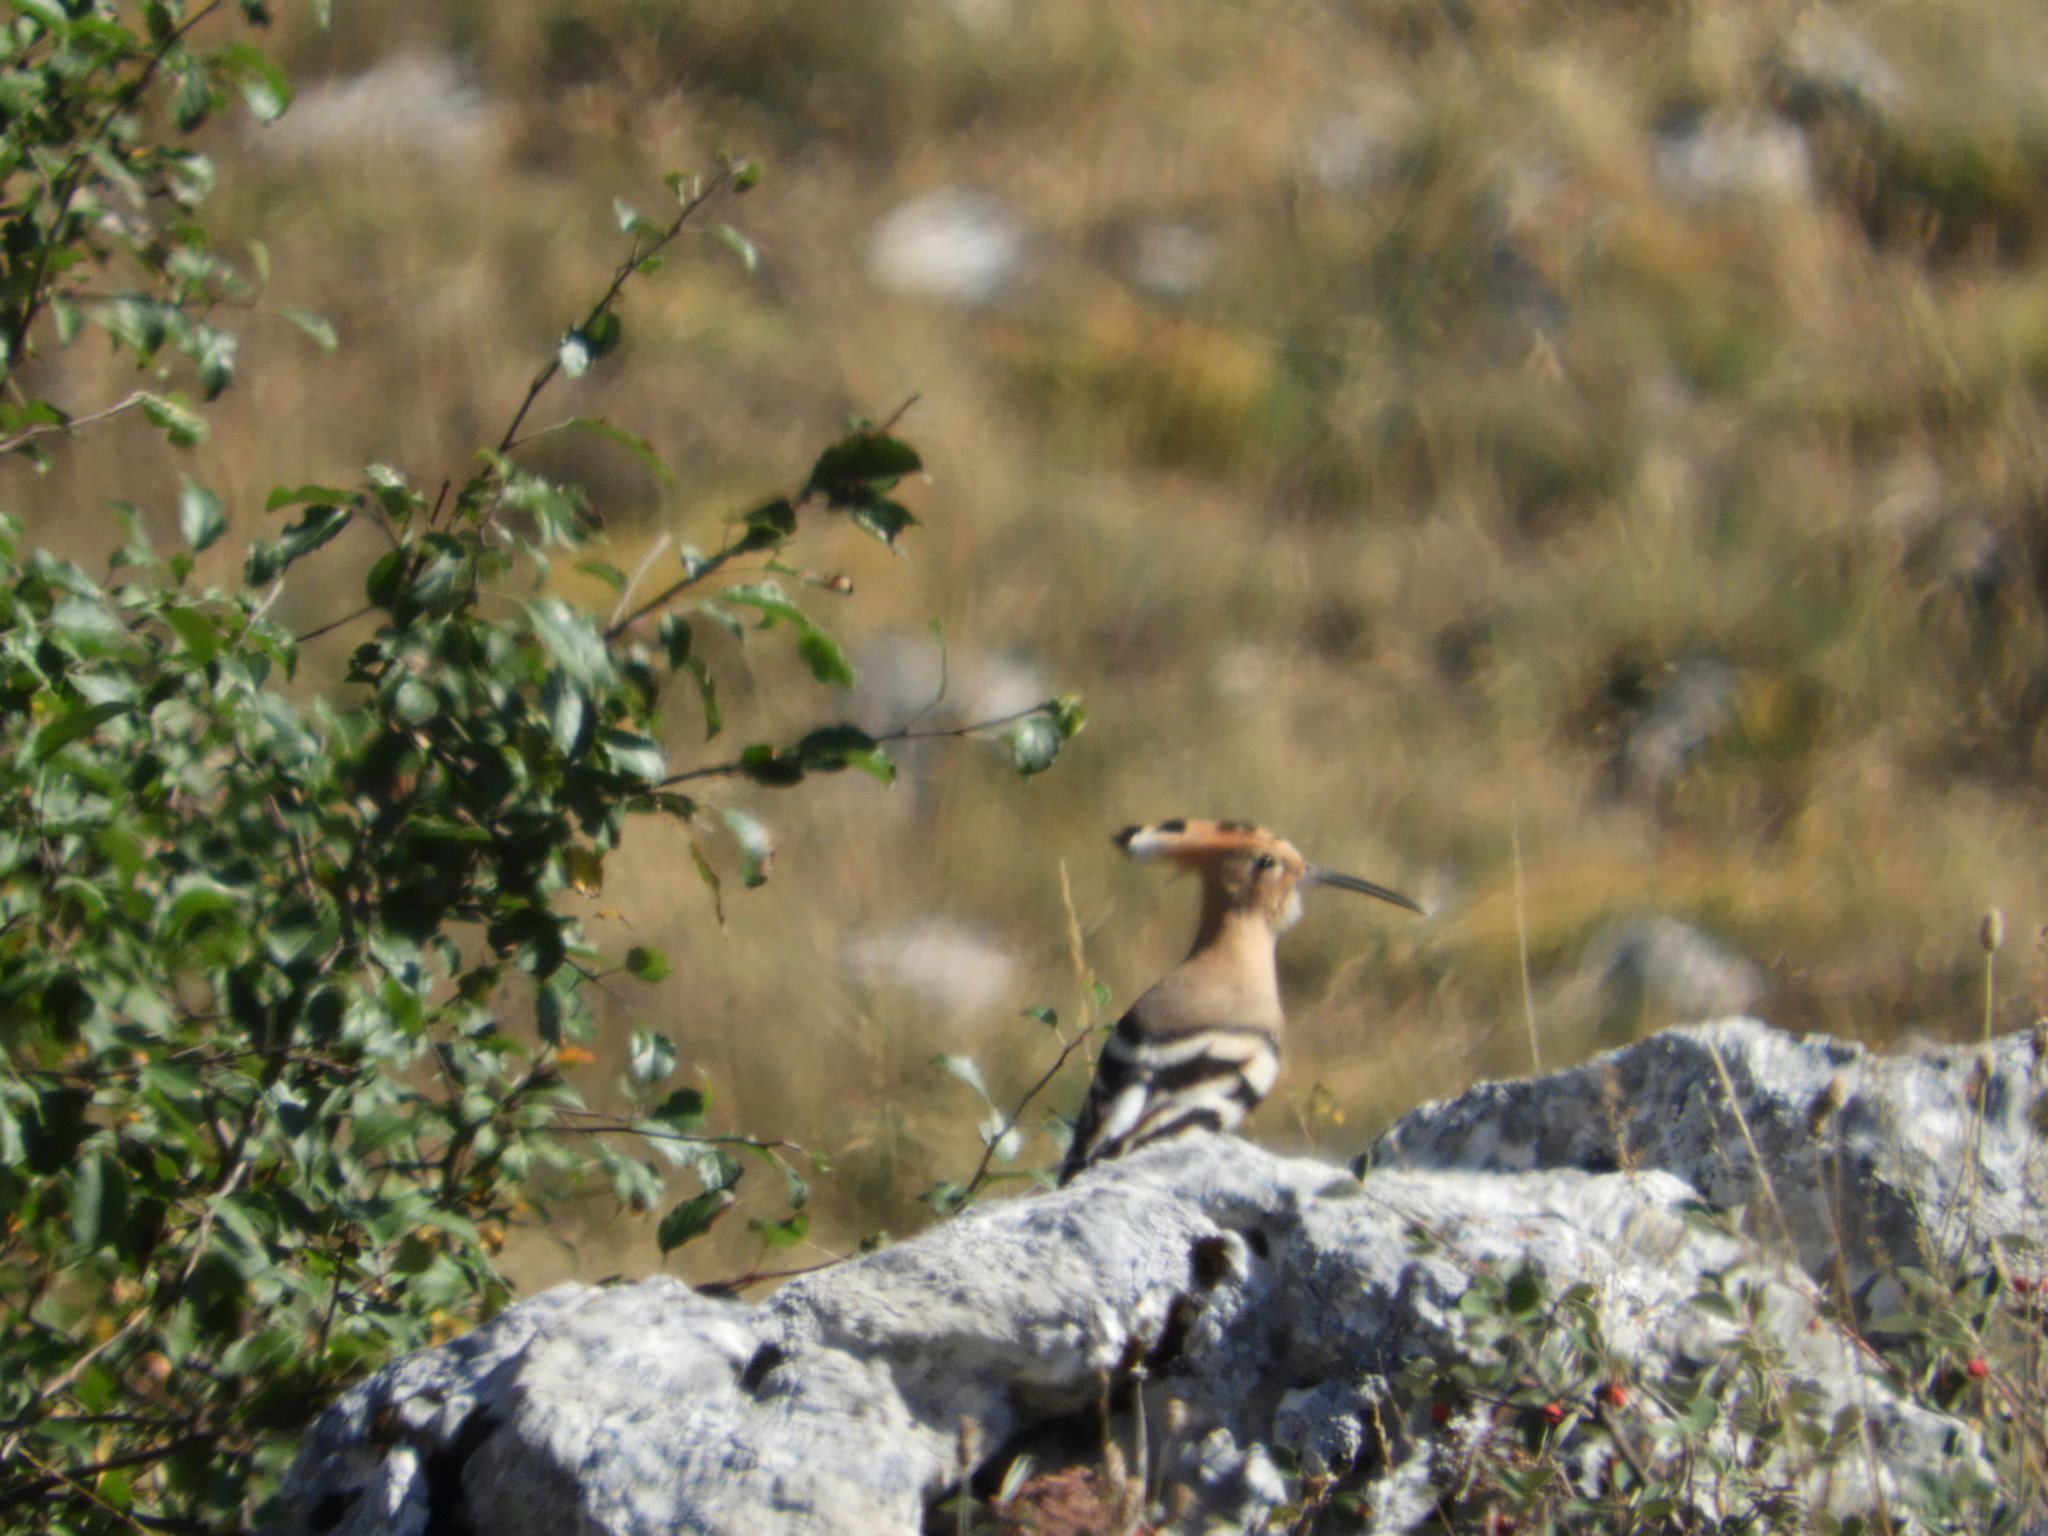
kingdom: Animalia
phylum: Chordata
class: Aves
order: Bucerotiformes
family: Upupidae
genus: Upupa
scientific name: Upupa epops
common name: Eurasian hoopoe
